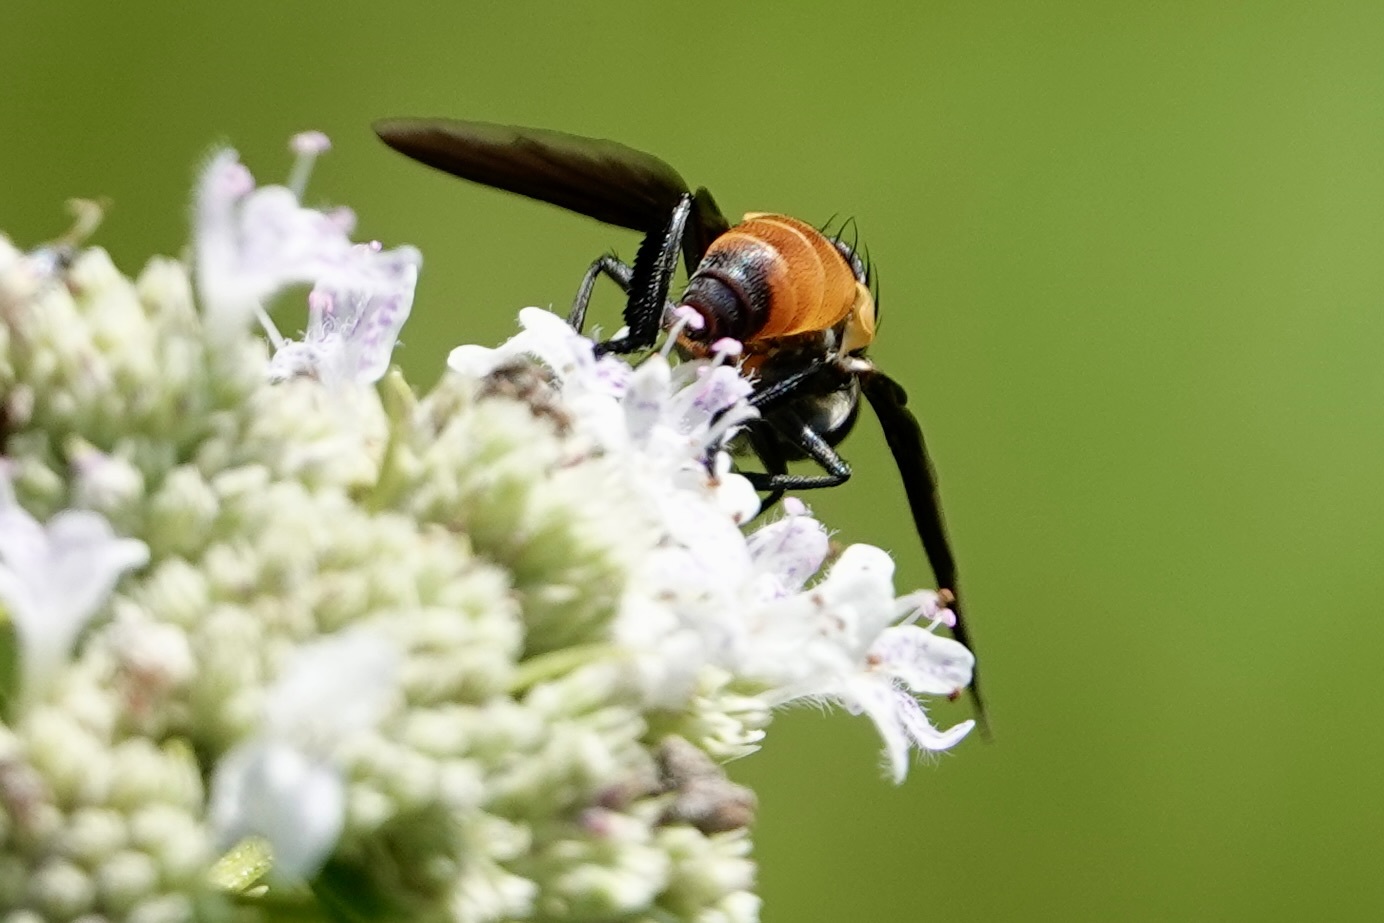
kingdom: Animalia
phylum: Arthropoda
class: Insecta
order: Diptera
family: Tachinidae
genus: Trichopoda
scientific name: Trichopoda pennipes
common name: Tachinid fly
